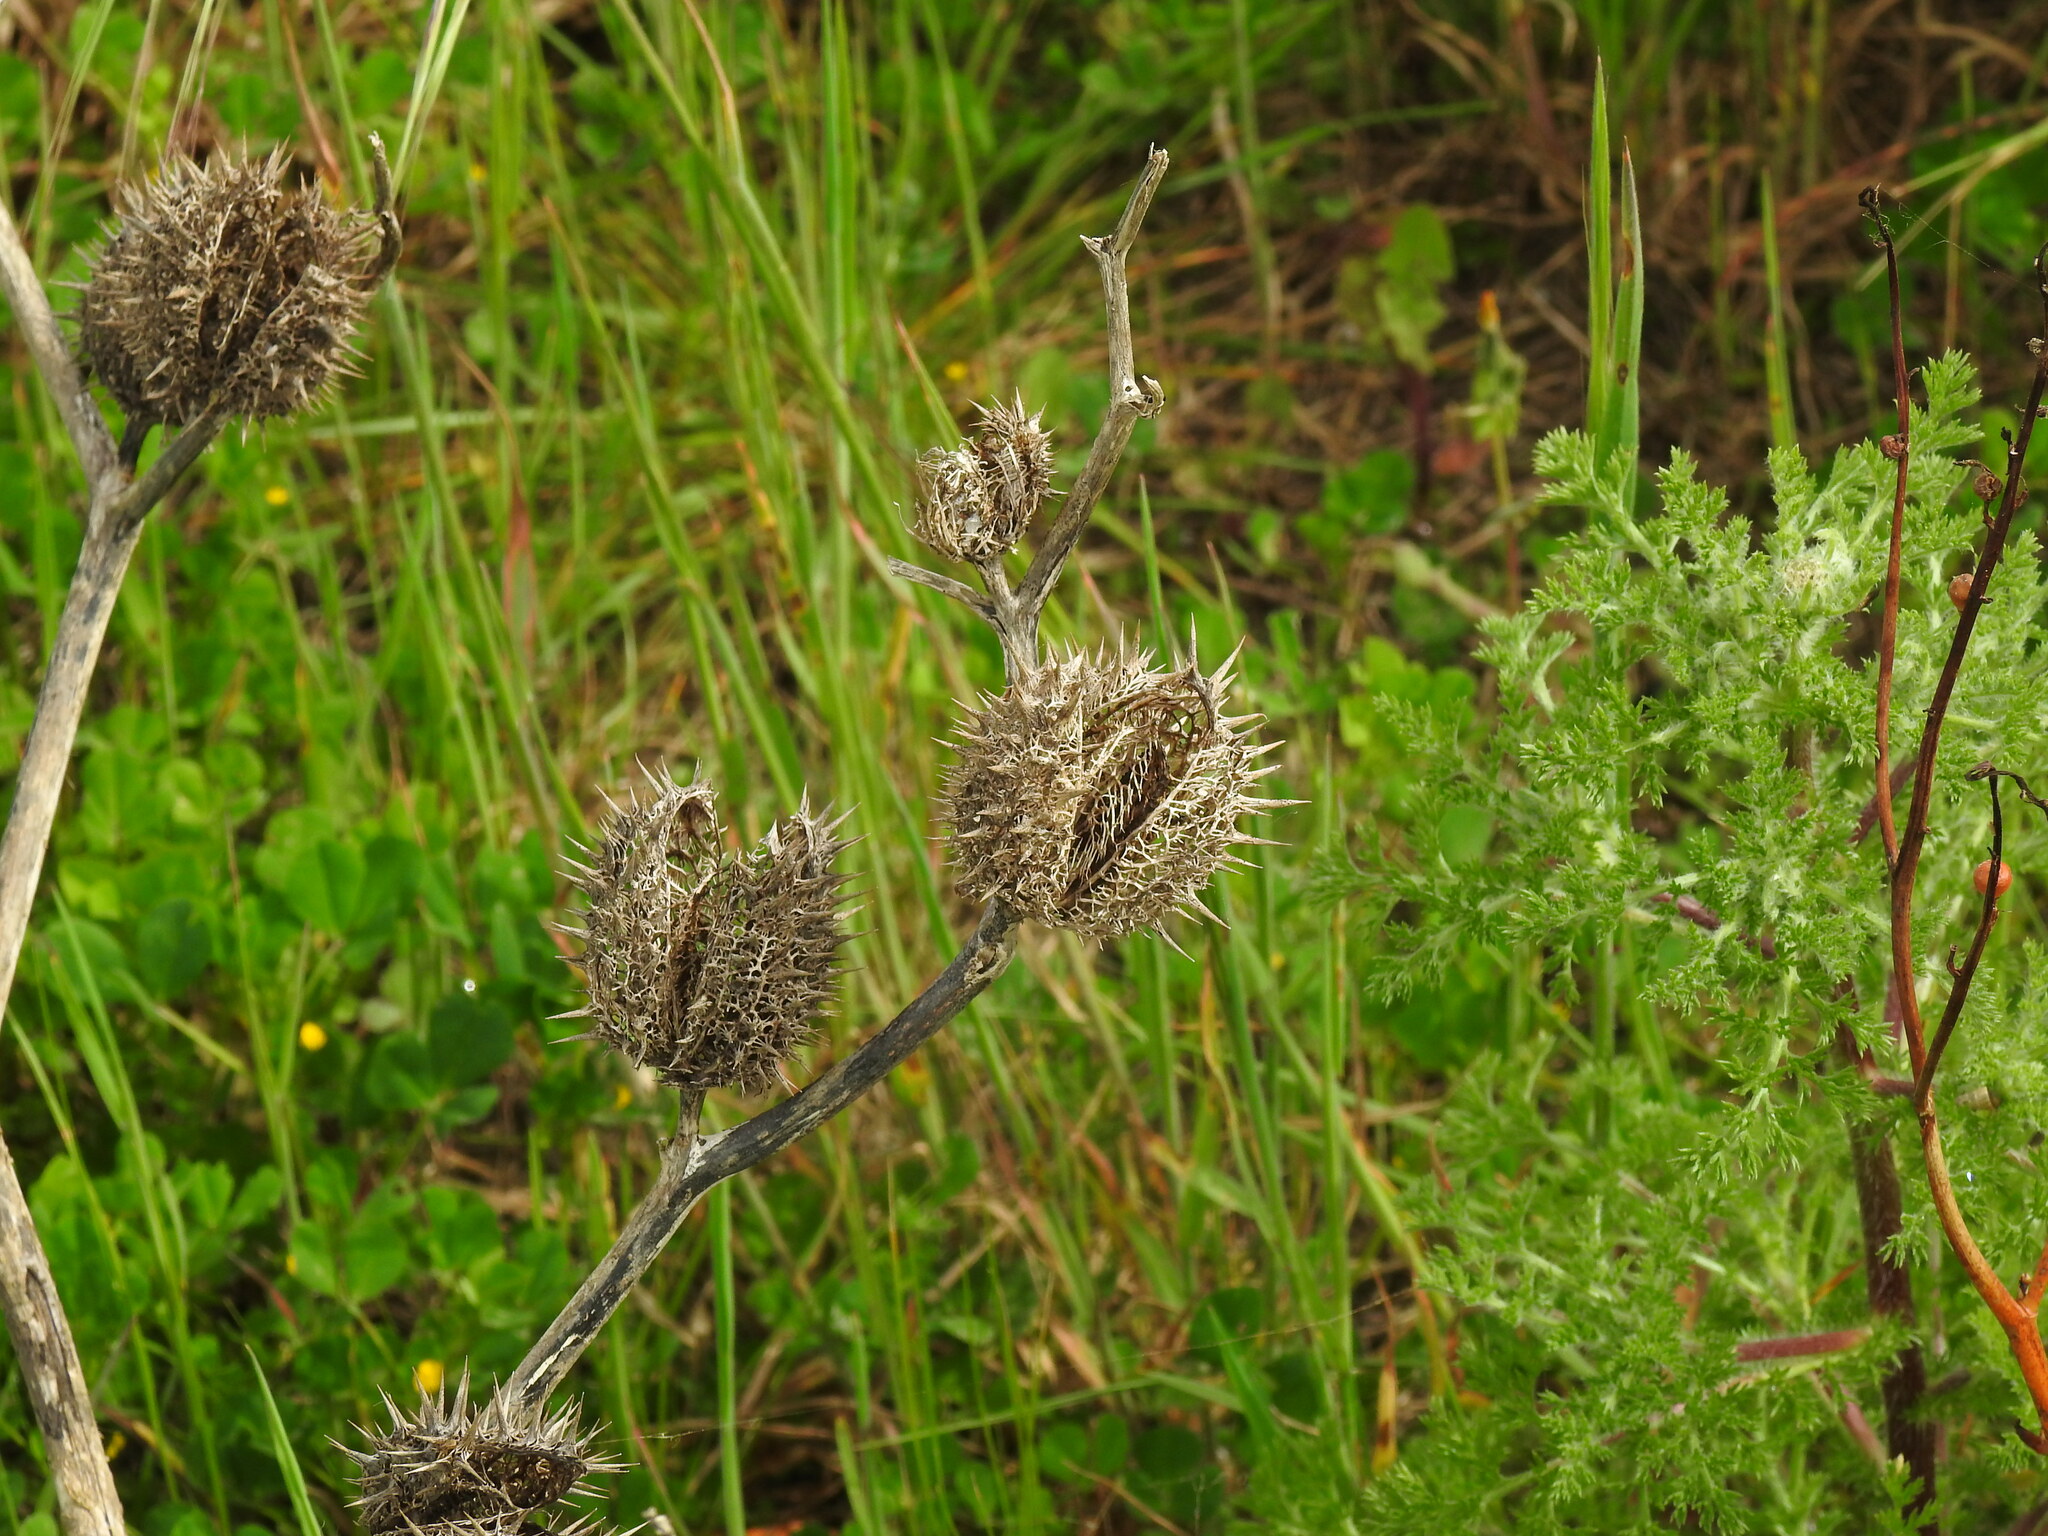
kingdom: Plantae
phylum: Tracheophyta
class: Magnoliopsida
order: Solanales
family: Solanaceae
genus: Datura
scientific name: Datura stramonium
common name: Thorn-apple
